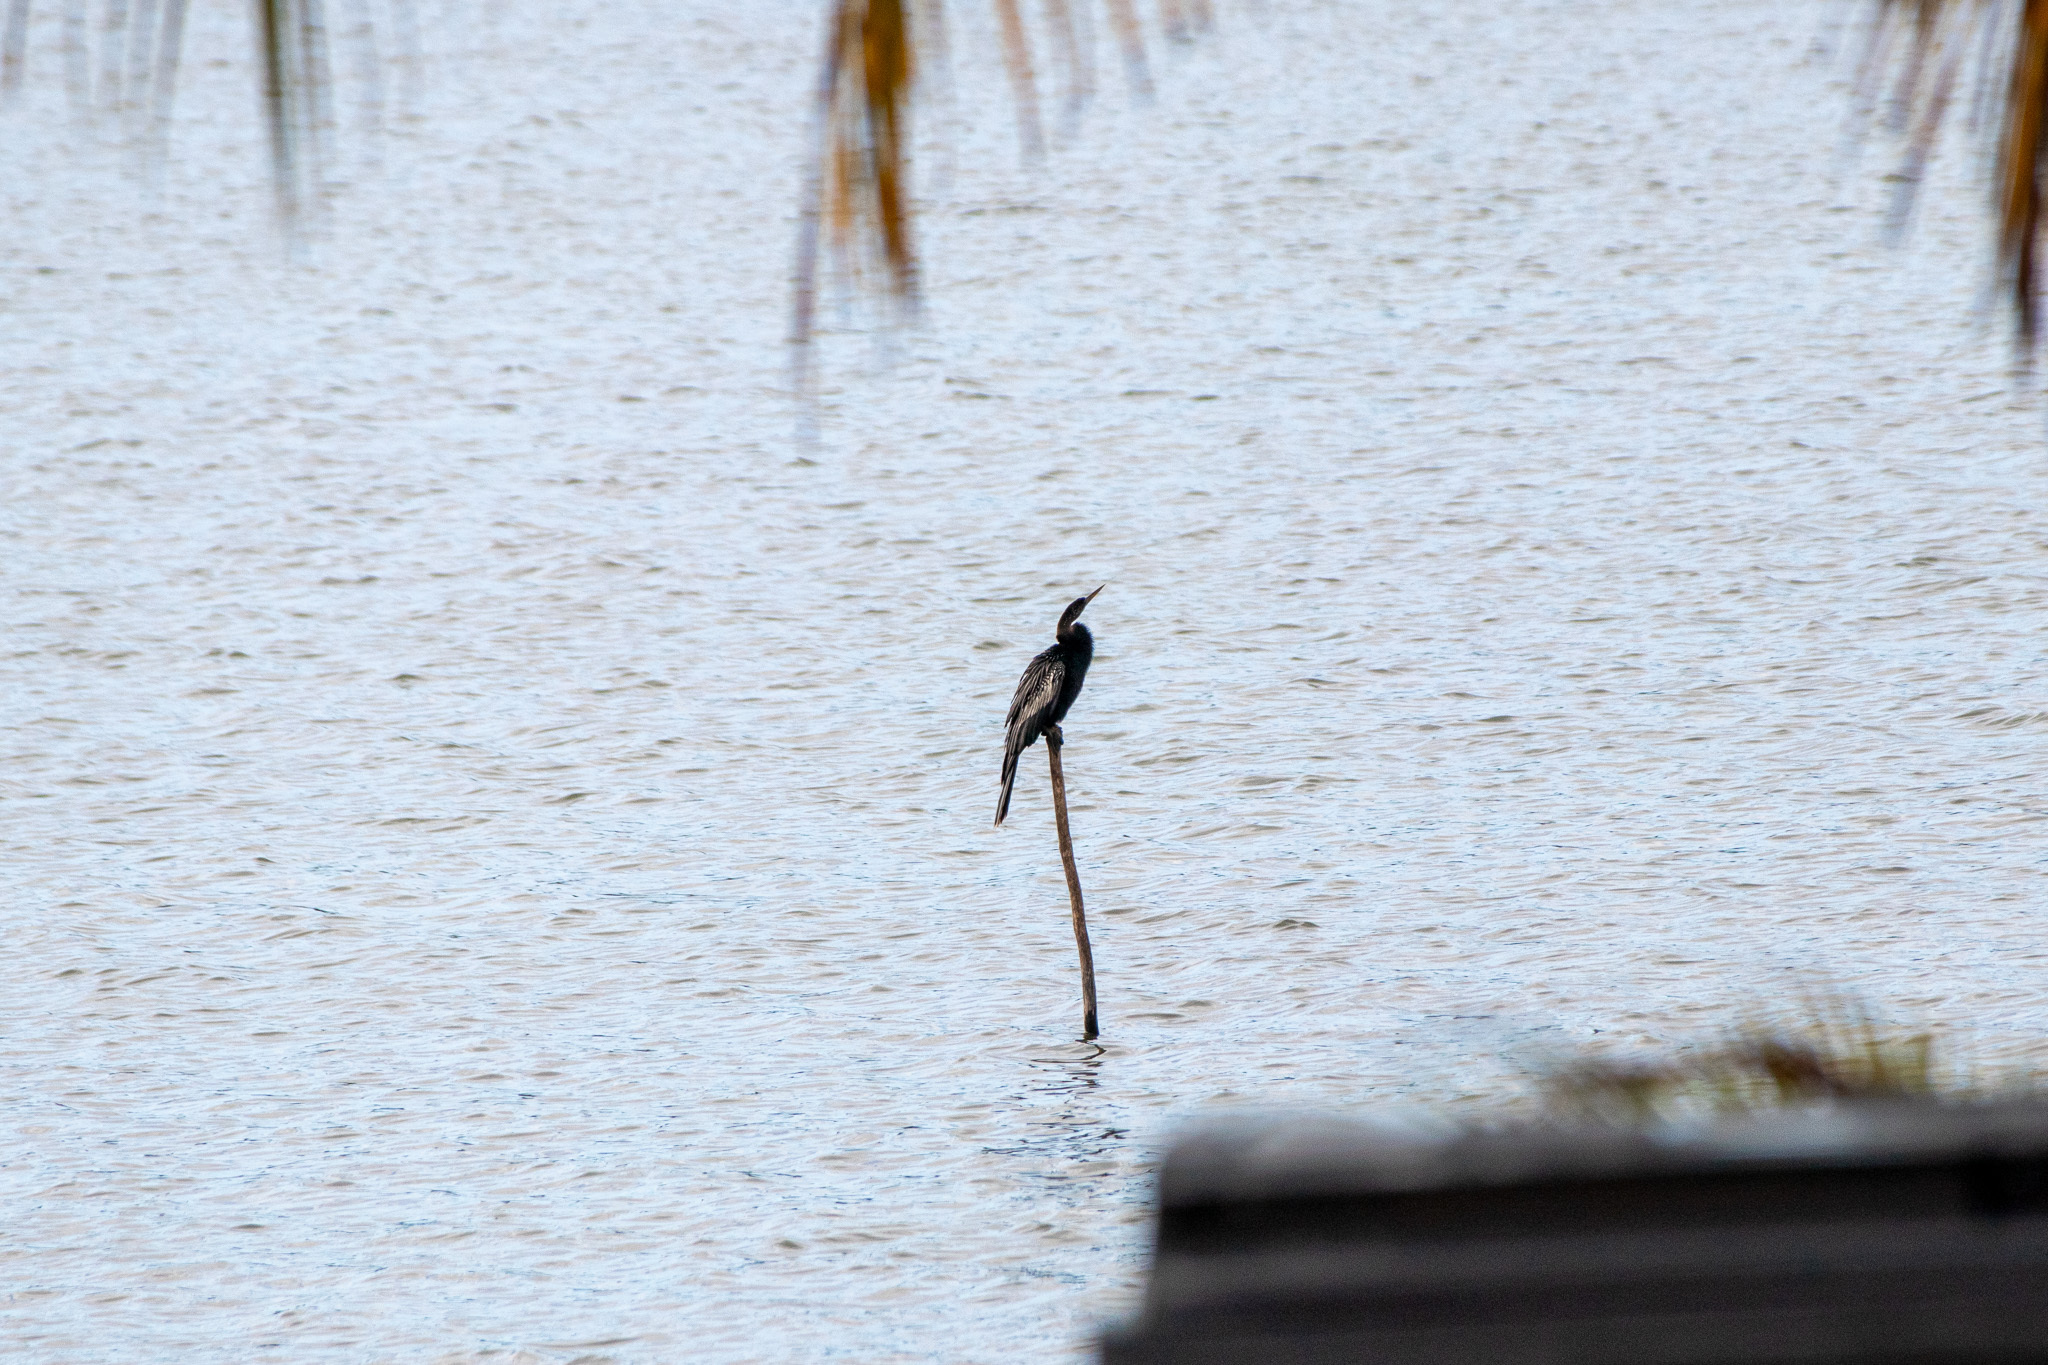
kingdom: Animalia
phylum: Chordata
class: Aves
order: Suliformes
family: Anhingidae
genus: Anhinga
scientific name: Anhinga anhinga
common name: Anhinga
